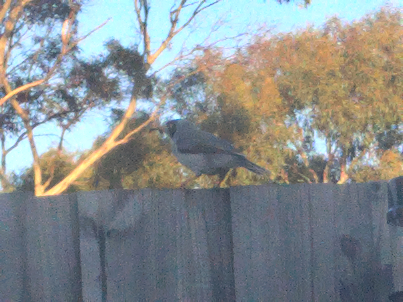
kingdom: Animalia
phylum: Chordata
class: Aves
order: Passeriformes
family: Meliphagidae
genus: Manorina
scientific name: Manorina melanocephala
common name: Noisy miner
